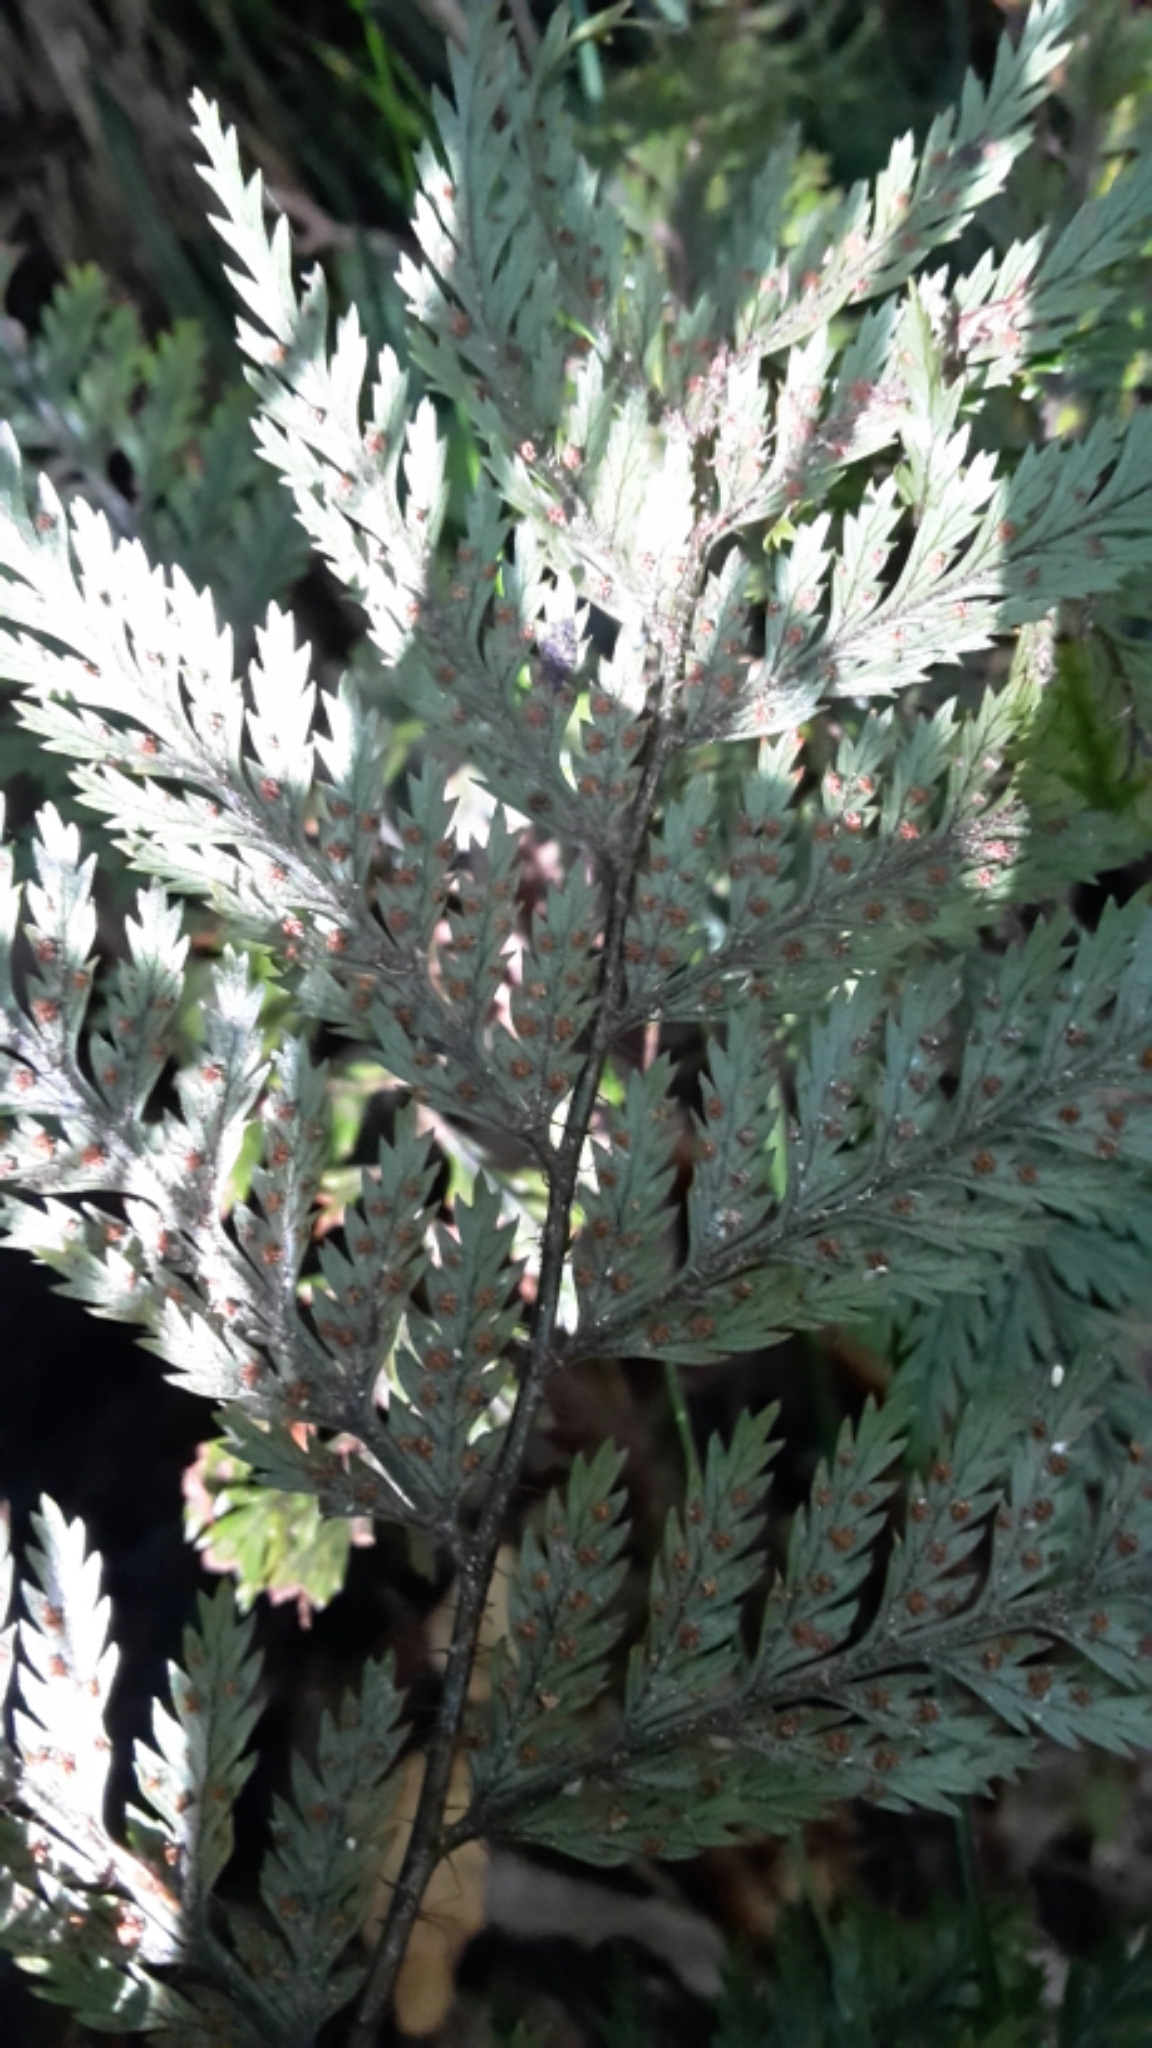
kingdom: Plantae
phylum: Tracheophyta
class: Polypodiopsida
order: Polypodiales
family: Dryopteridaceae
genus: Lastreopsis
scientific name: Lastreopsis hispida
